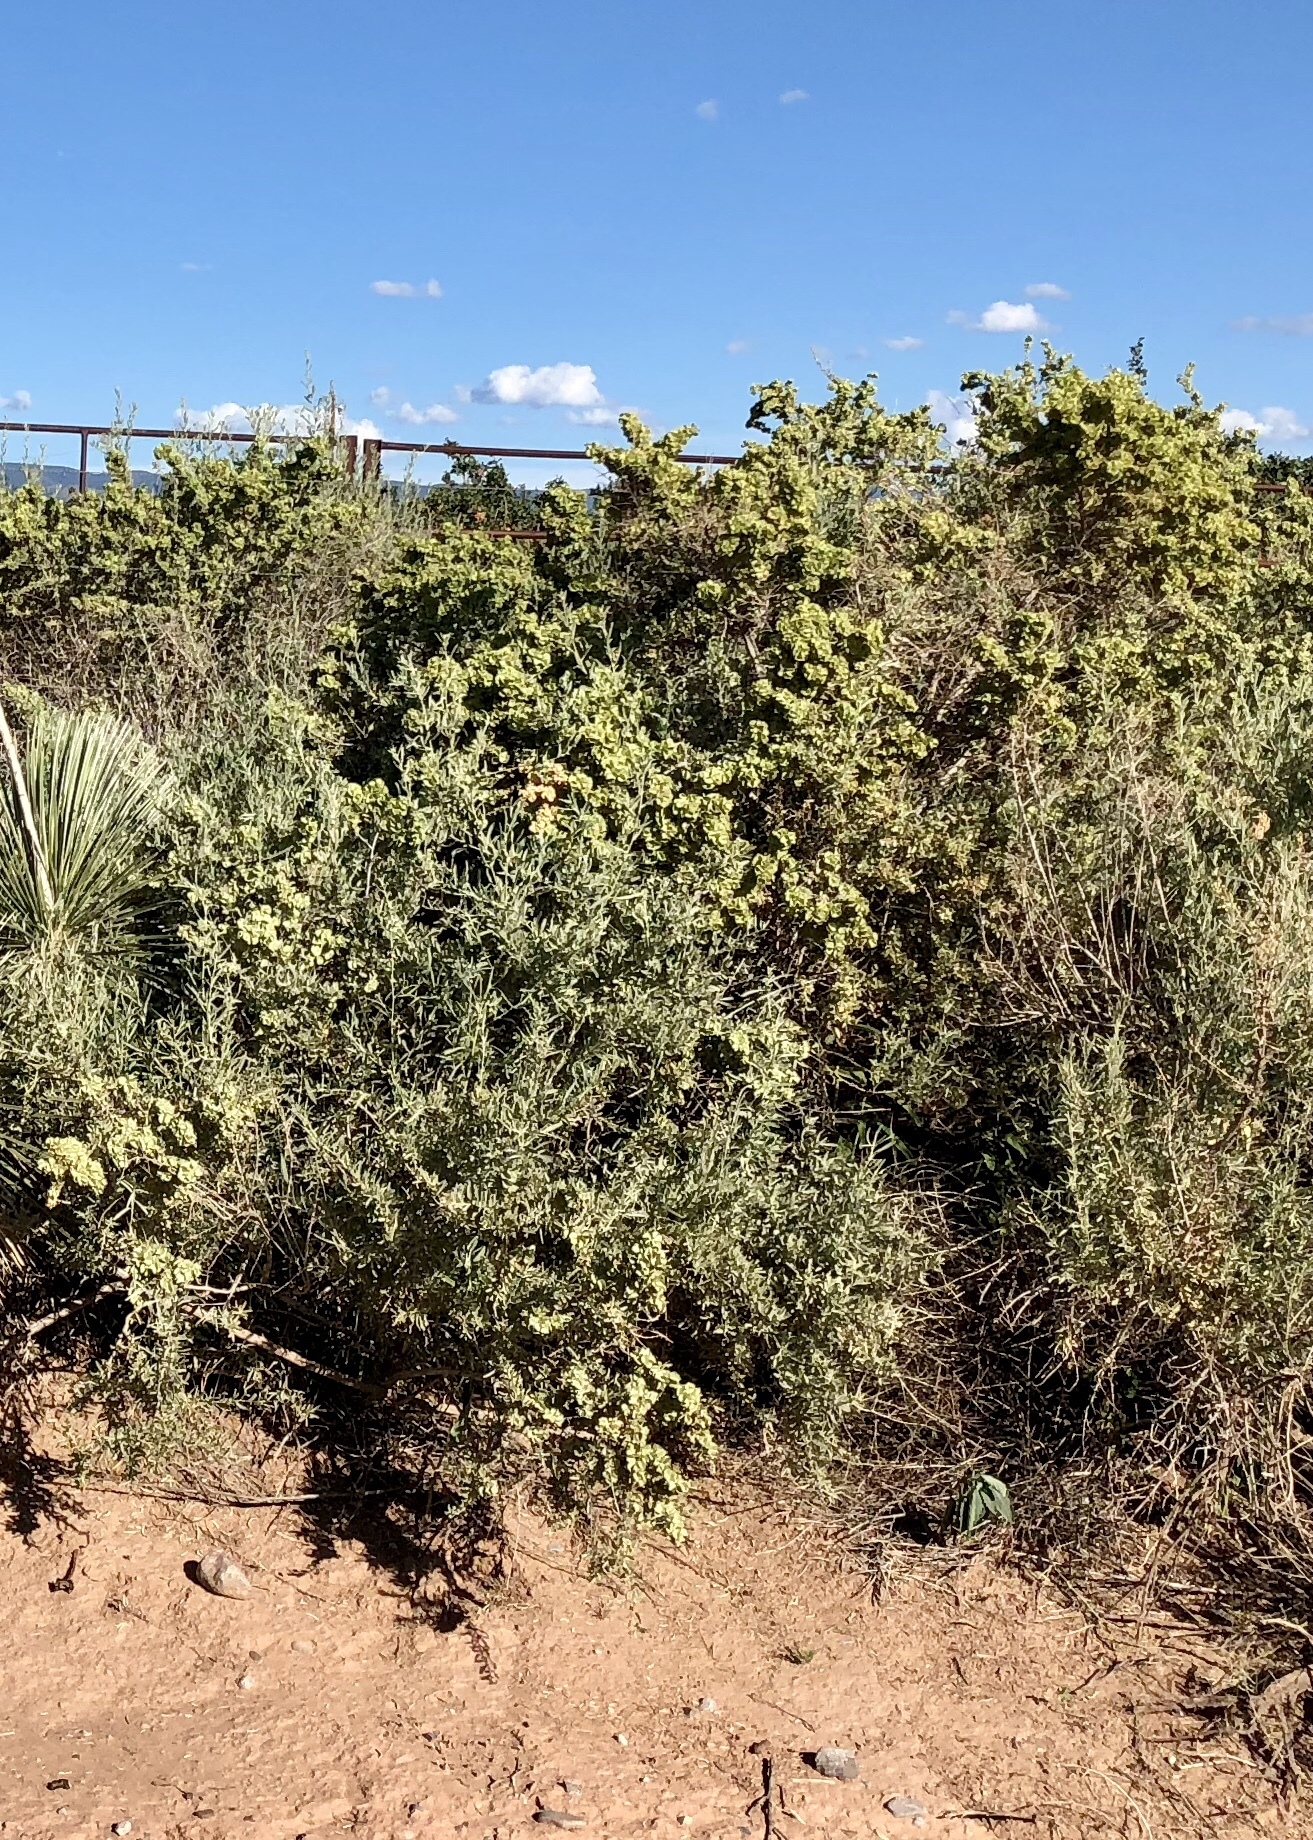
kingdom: Plantae
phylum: Tracheophyta
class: Magnoliopsida
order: Caryophyllales
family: Amaranthaceae
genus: Atriplex
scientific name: Atriplex canescens
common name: Four-wing saltbush
